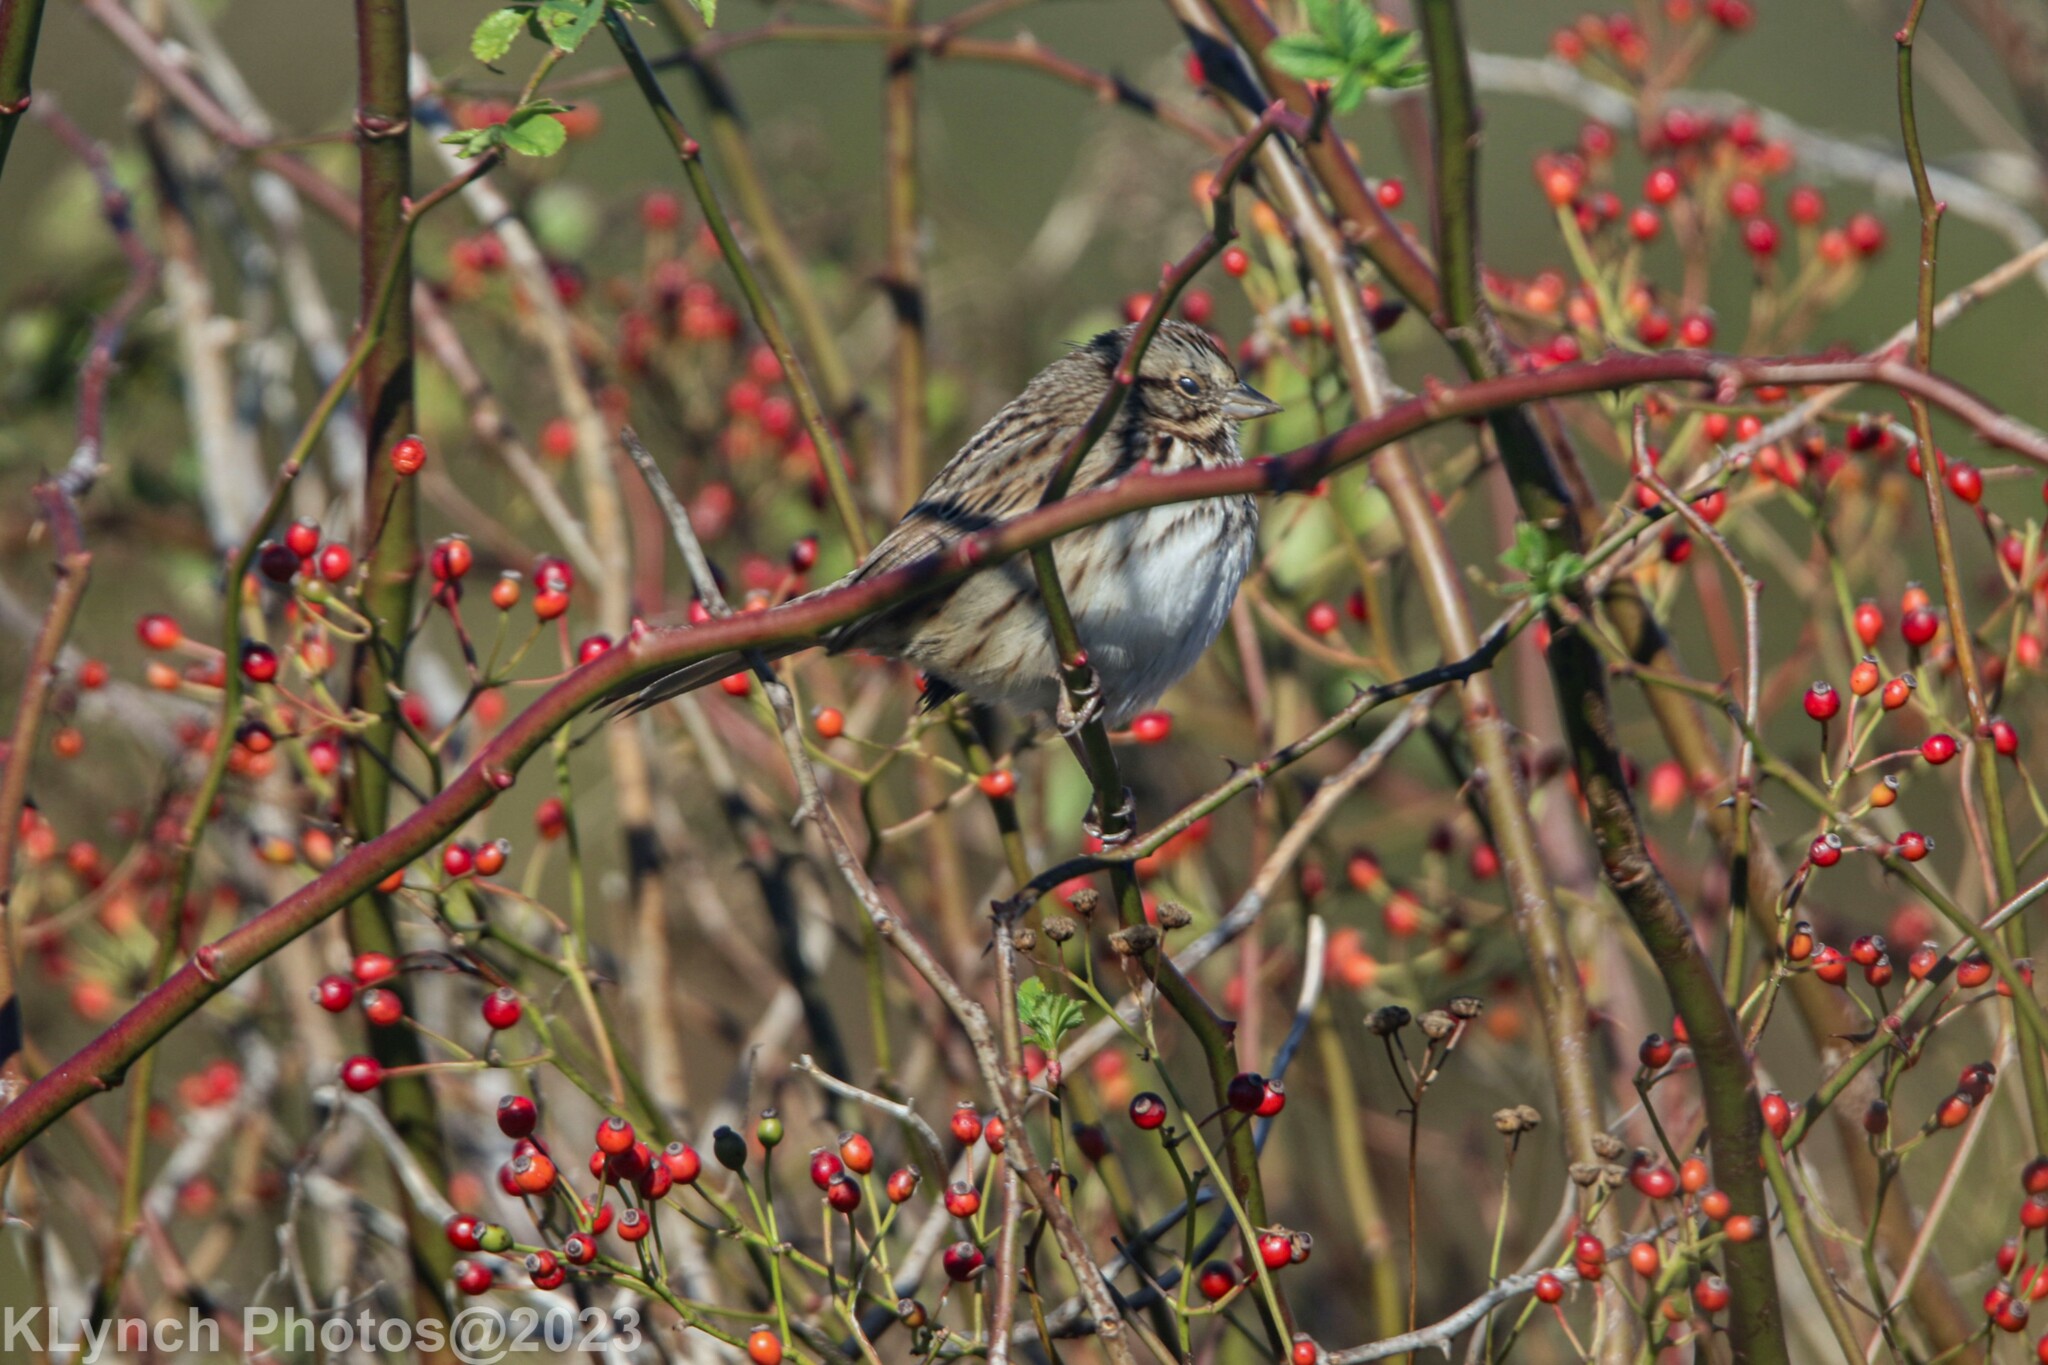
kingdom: Animalia
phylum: Chordata
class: Aves
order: Passeriformes
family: Passerellidae
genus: Melospiza
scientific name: Melospiza melodia
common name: Song sparrow
